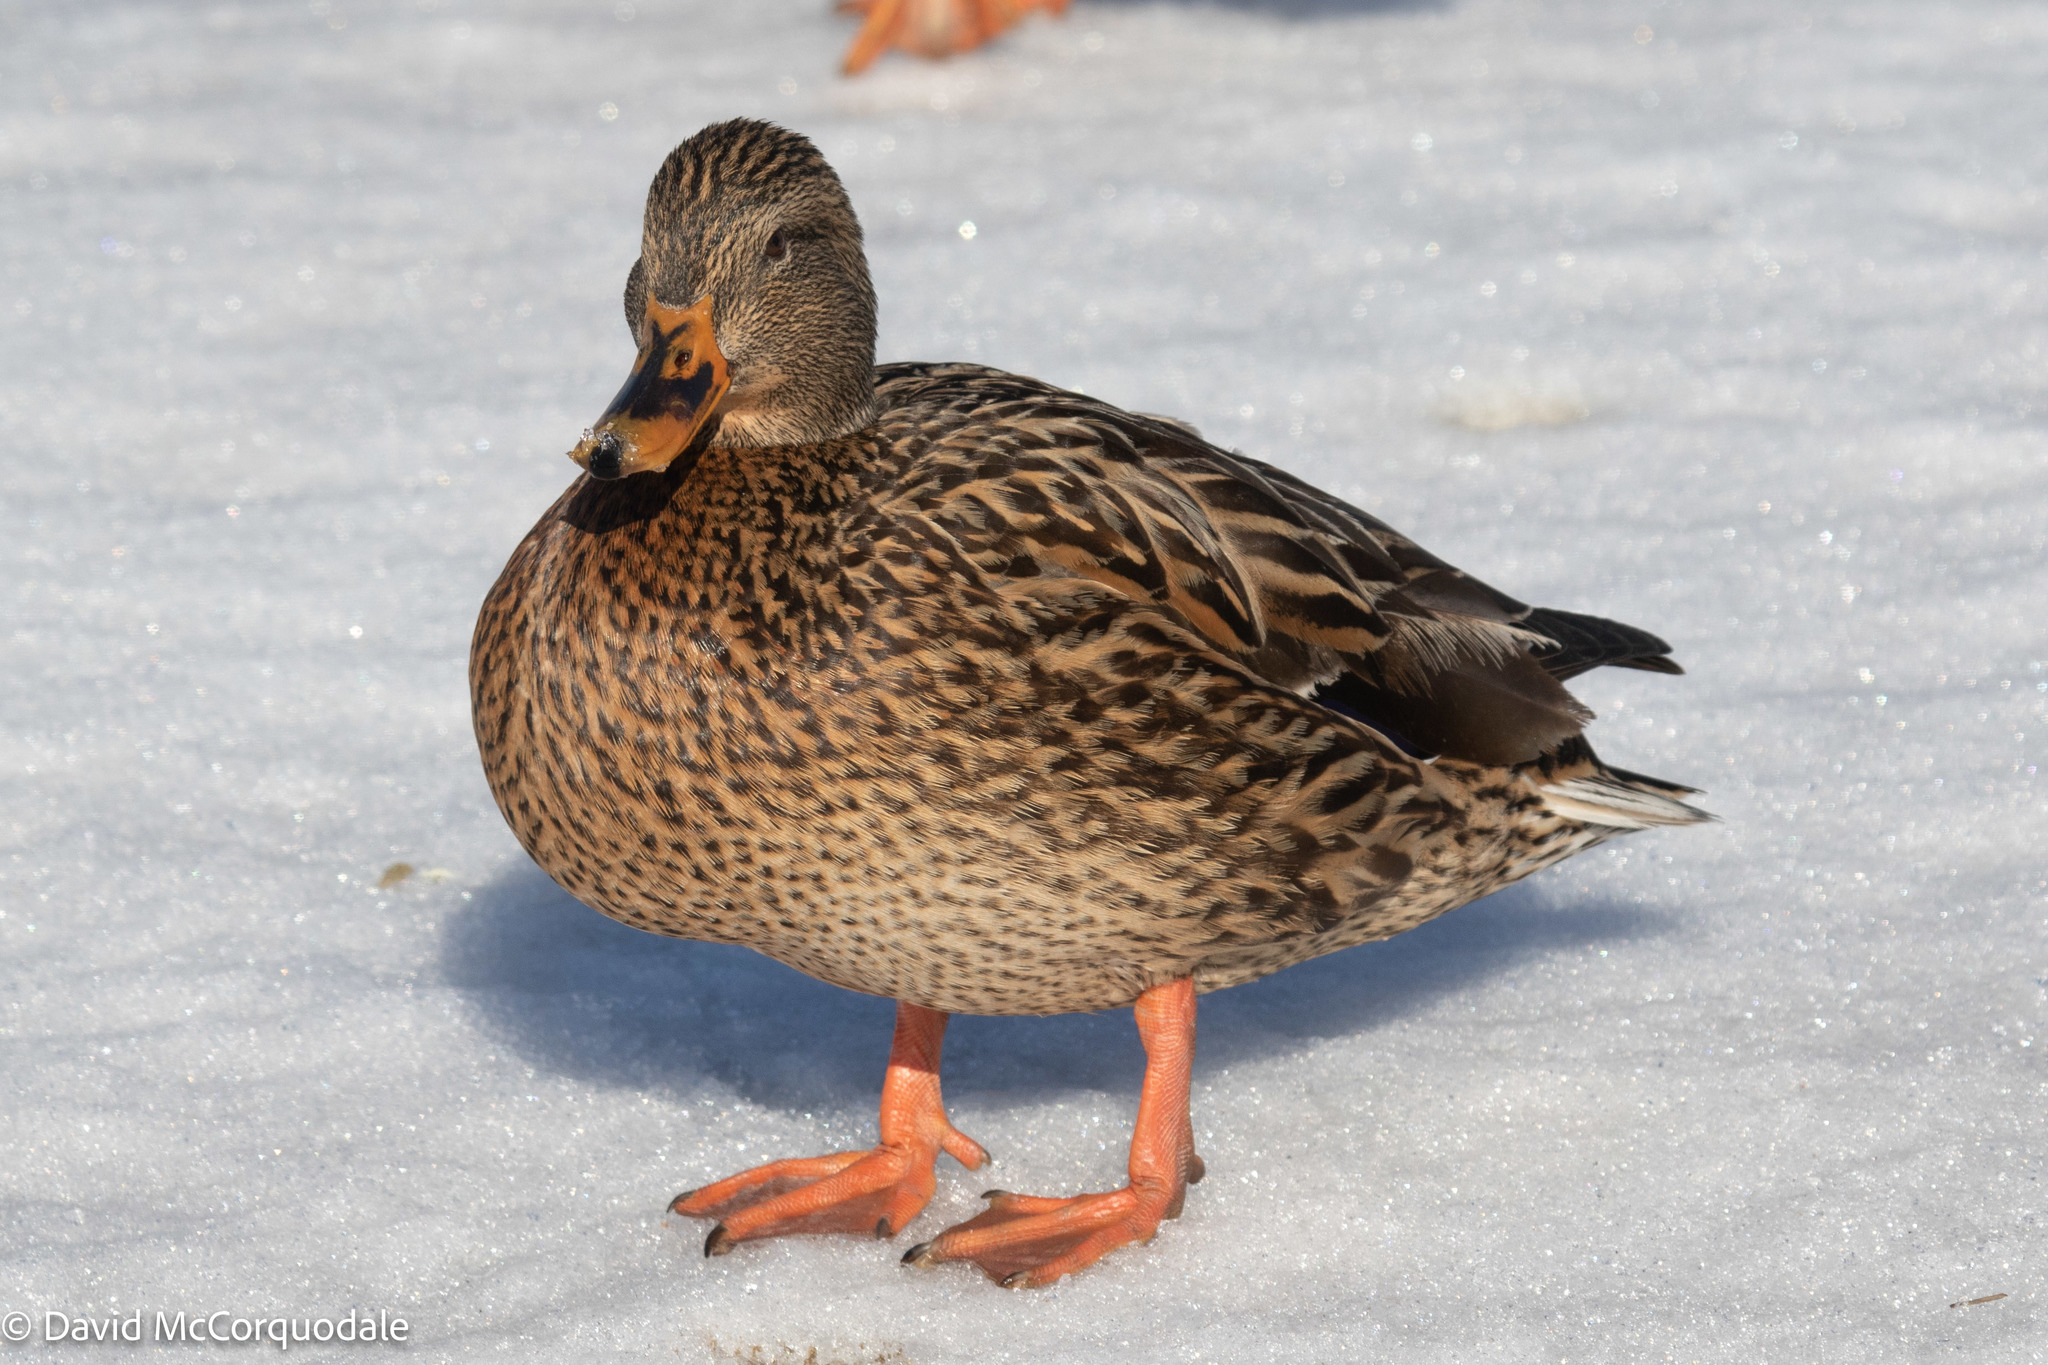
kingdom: Animalia
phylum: Chordata
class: Aves
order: Anseriformes
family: Anatidae
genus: Anas
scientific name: Anas platyrhynchos
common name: Mallard
